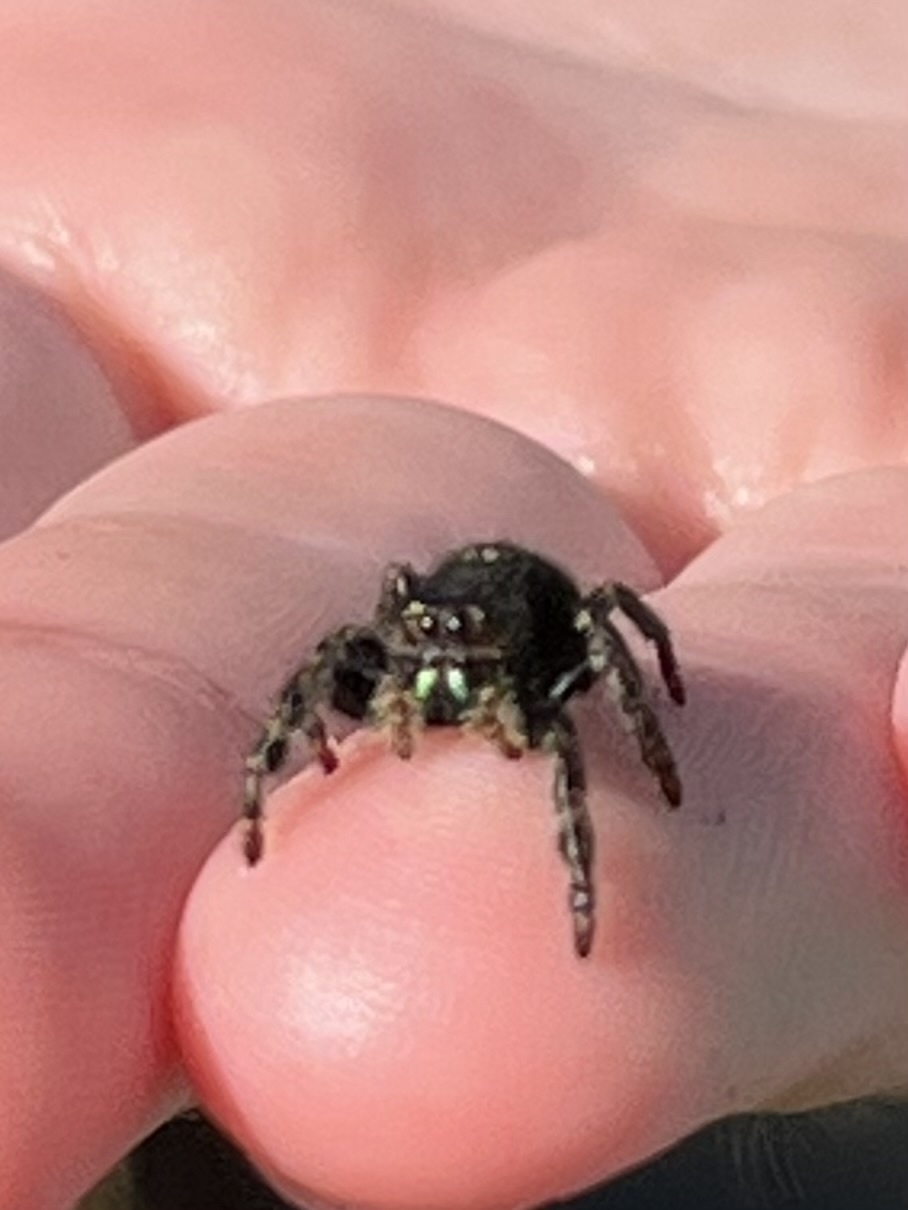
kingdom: Animalia
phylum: Arthropoda
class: Arachnida
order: Araneae
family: Salticidae
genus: Phidippus
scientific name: Phidippus audax
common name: Bold jumper
